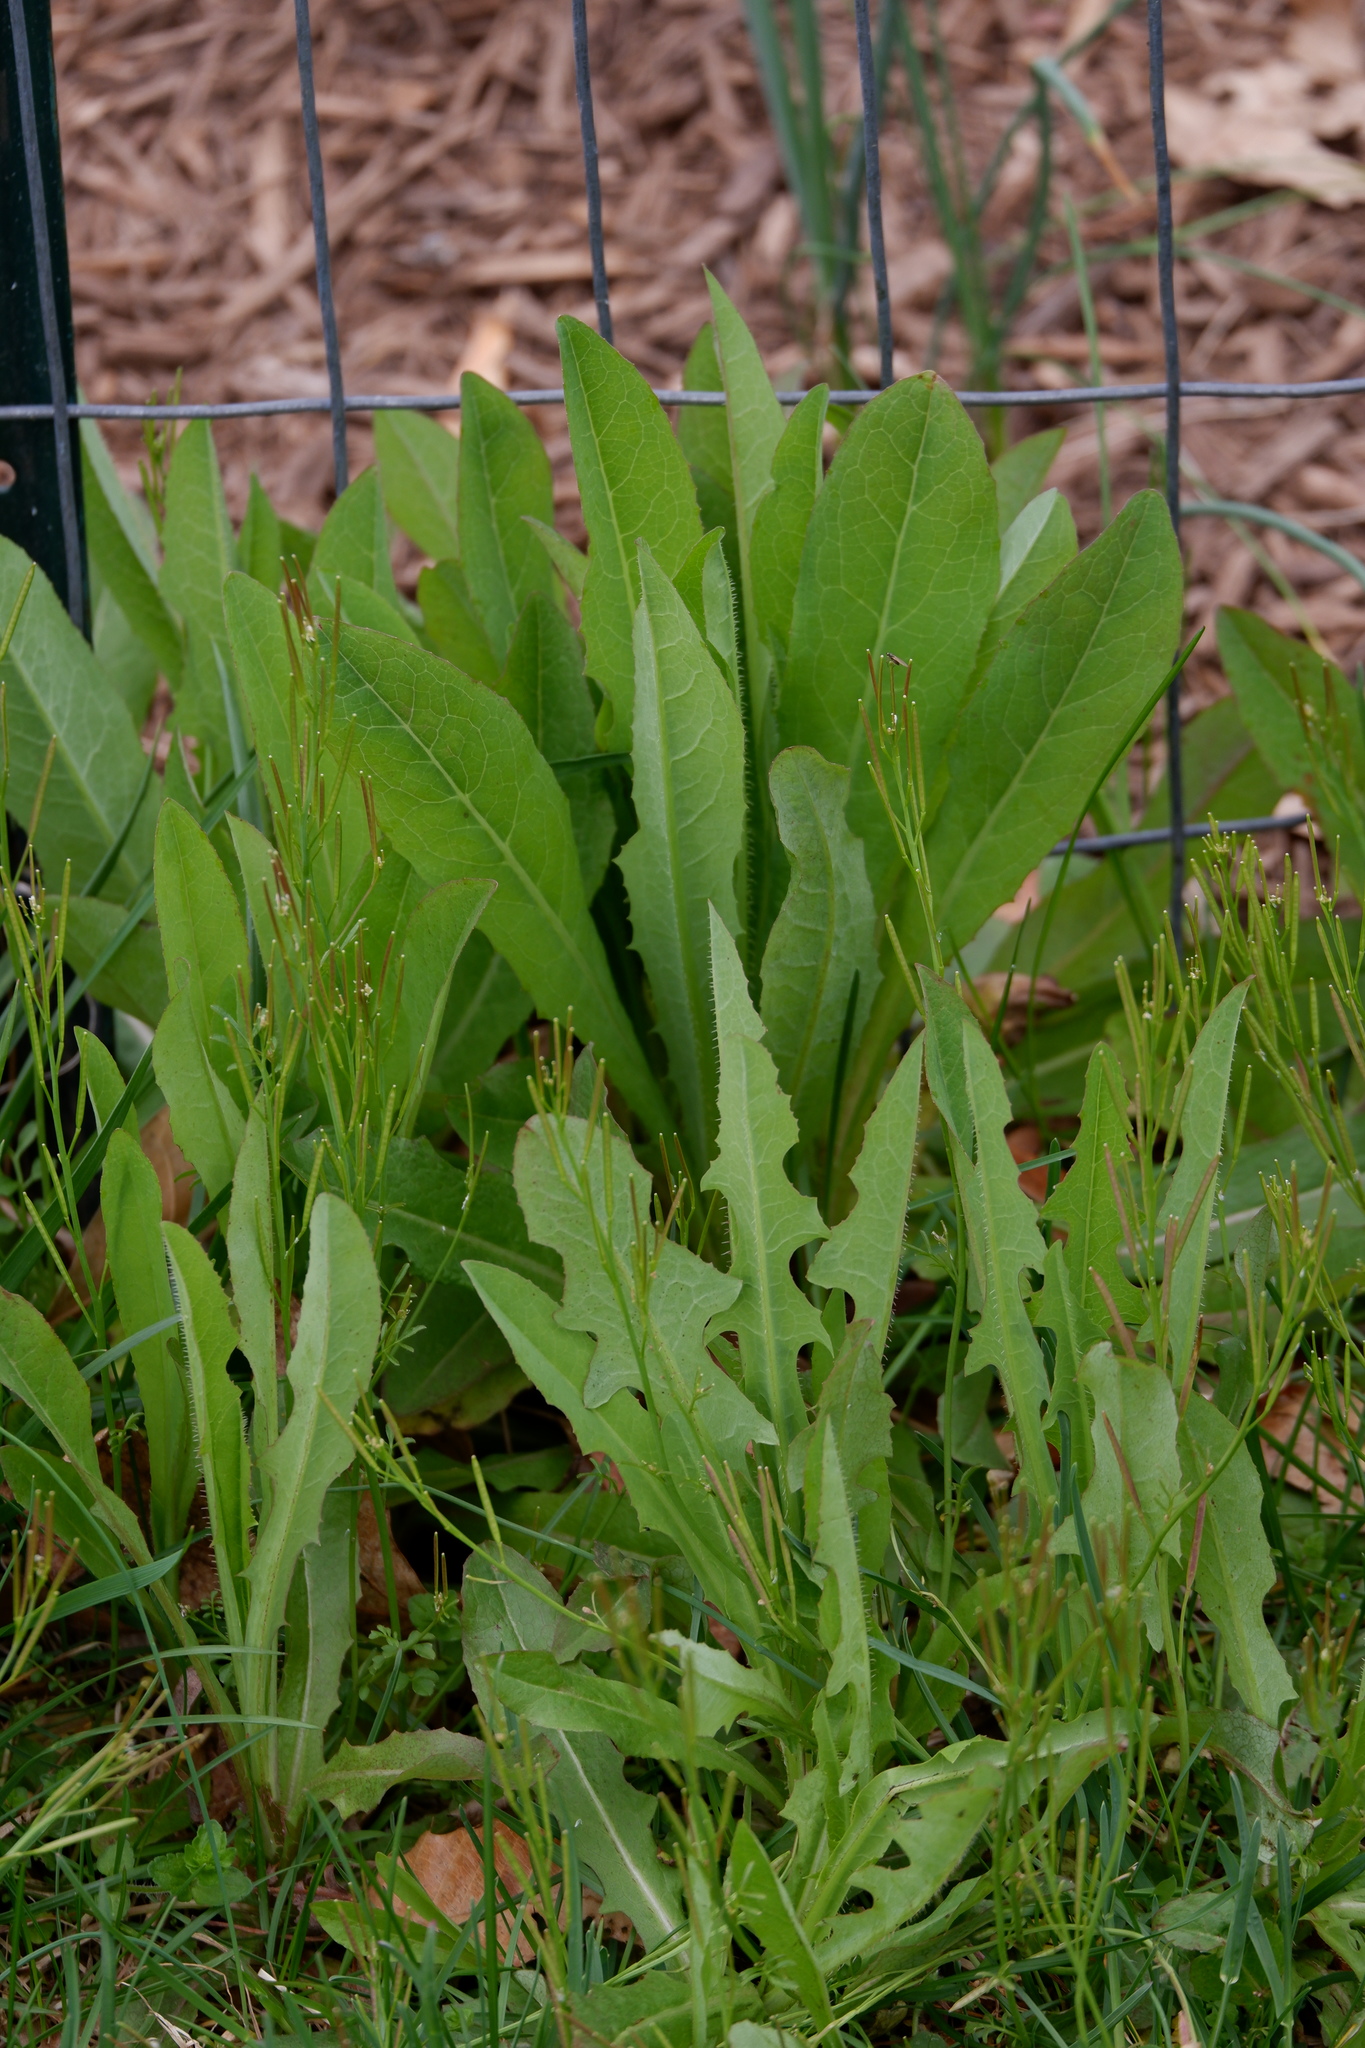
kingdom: Plantae
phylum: Tracheophyta
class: Magnoliopsida
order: Asterales
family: Asteraceae
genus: Lactuca
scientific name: Lactuca serriola
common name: Prickly lettuce
